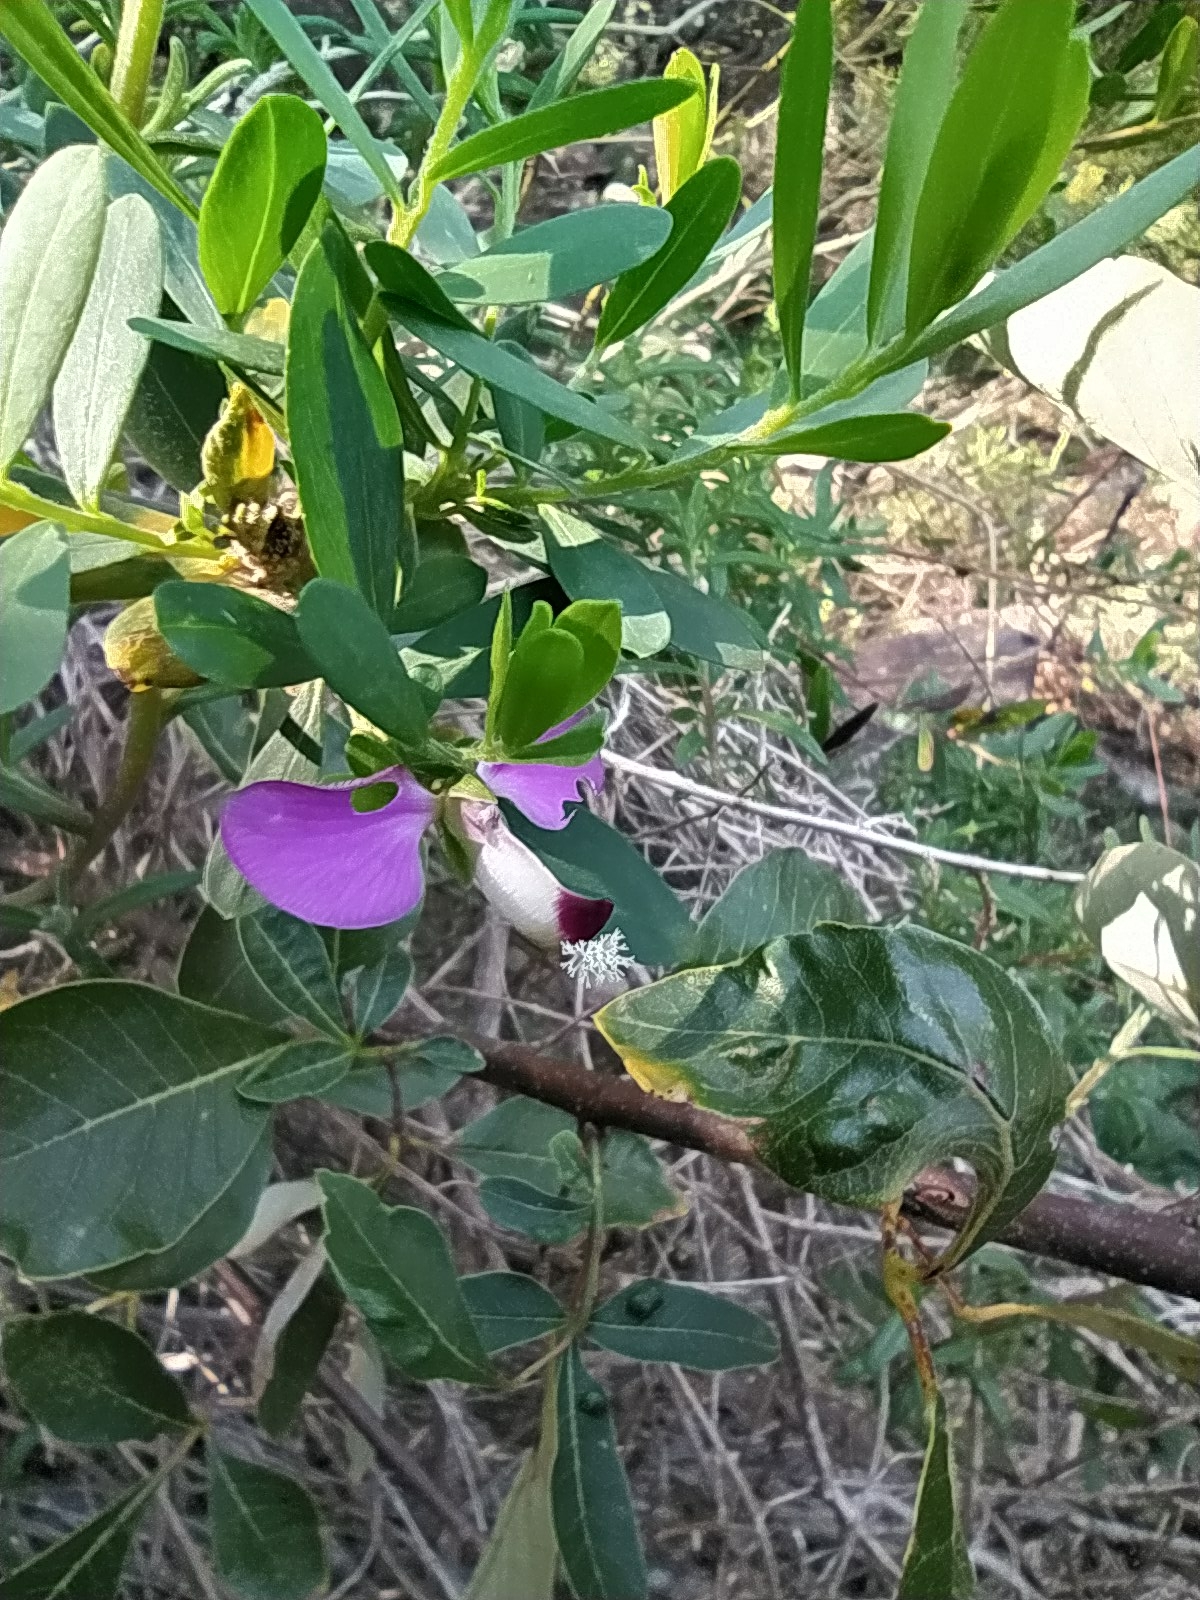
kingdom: Plantae
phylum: Tracheophyta
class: Magnoliopsida
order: Fabales
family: Polygalaceae
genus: Polygala
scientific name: Polygala myrtifolia
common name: Myrtle-leaf milkwort
